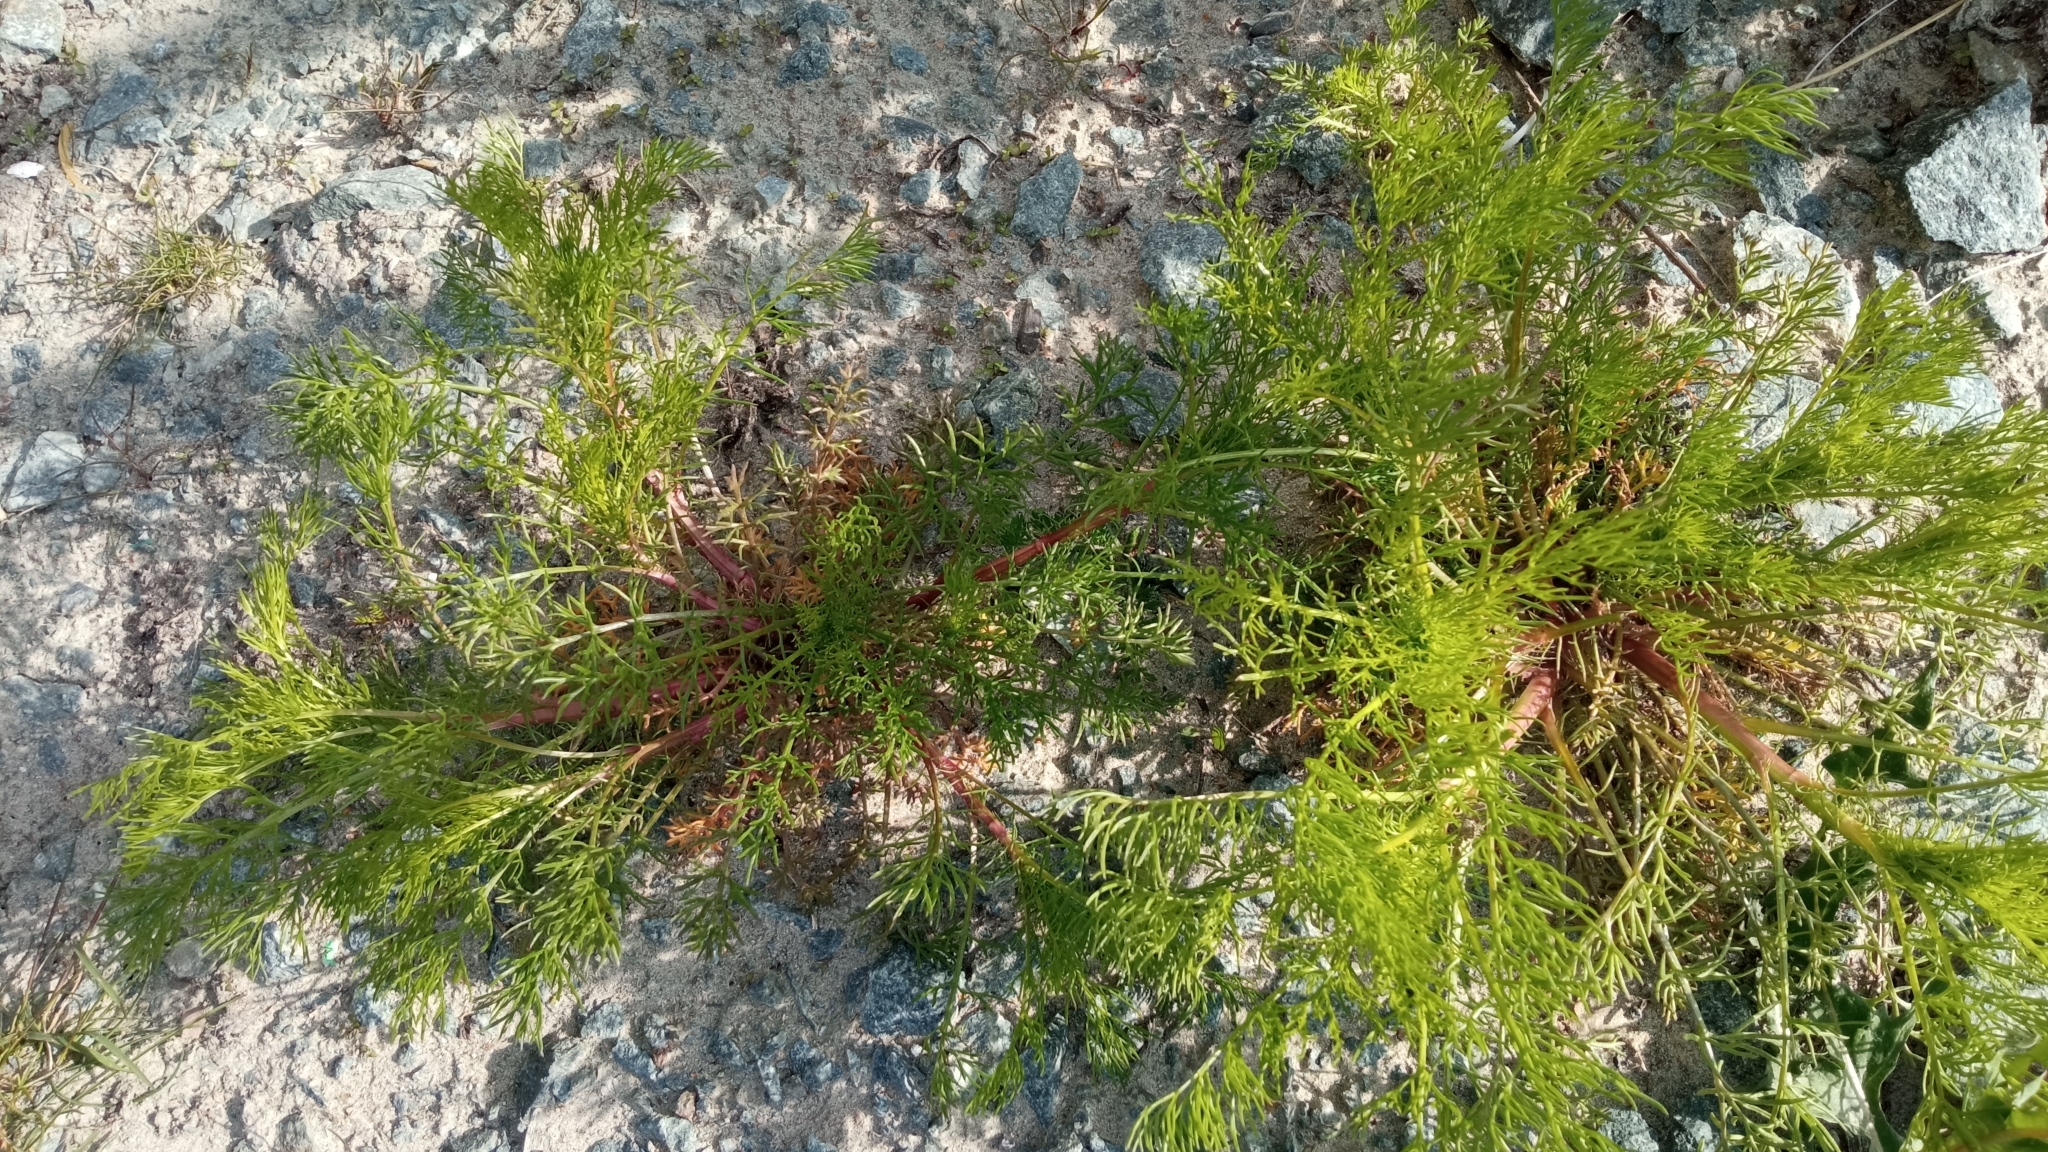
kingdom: Plantae
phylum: Tracheophyta
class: Magnoliopsida
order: Asterales
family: Asteraceae
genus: Tripleurospermum
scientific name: Tripleurospermum inodorum
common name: Scentless mayweed
